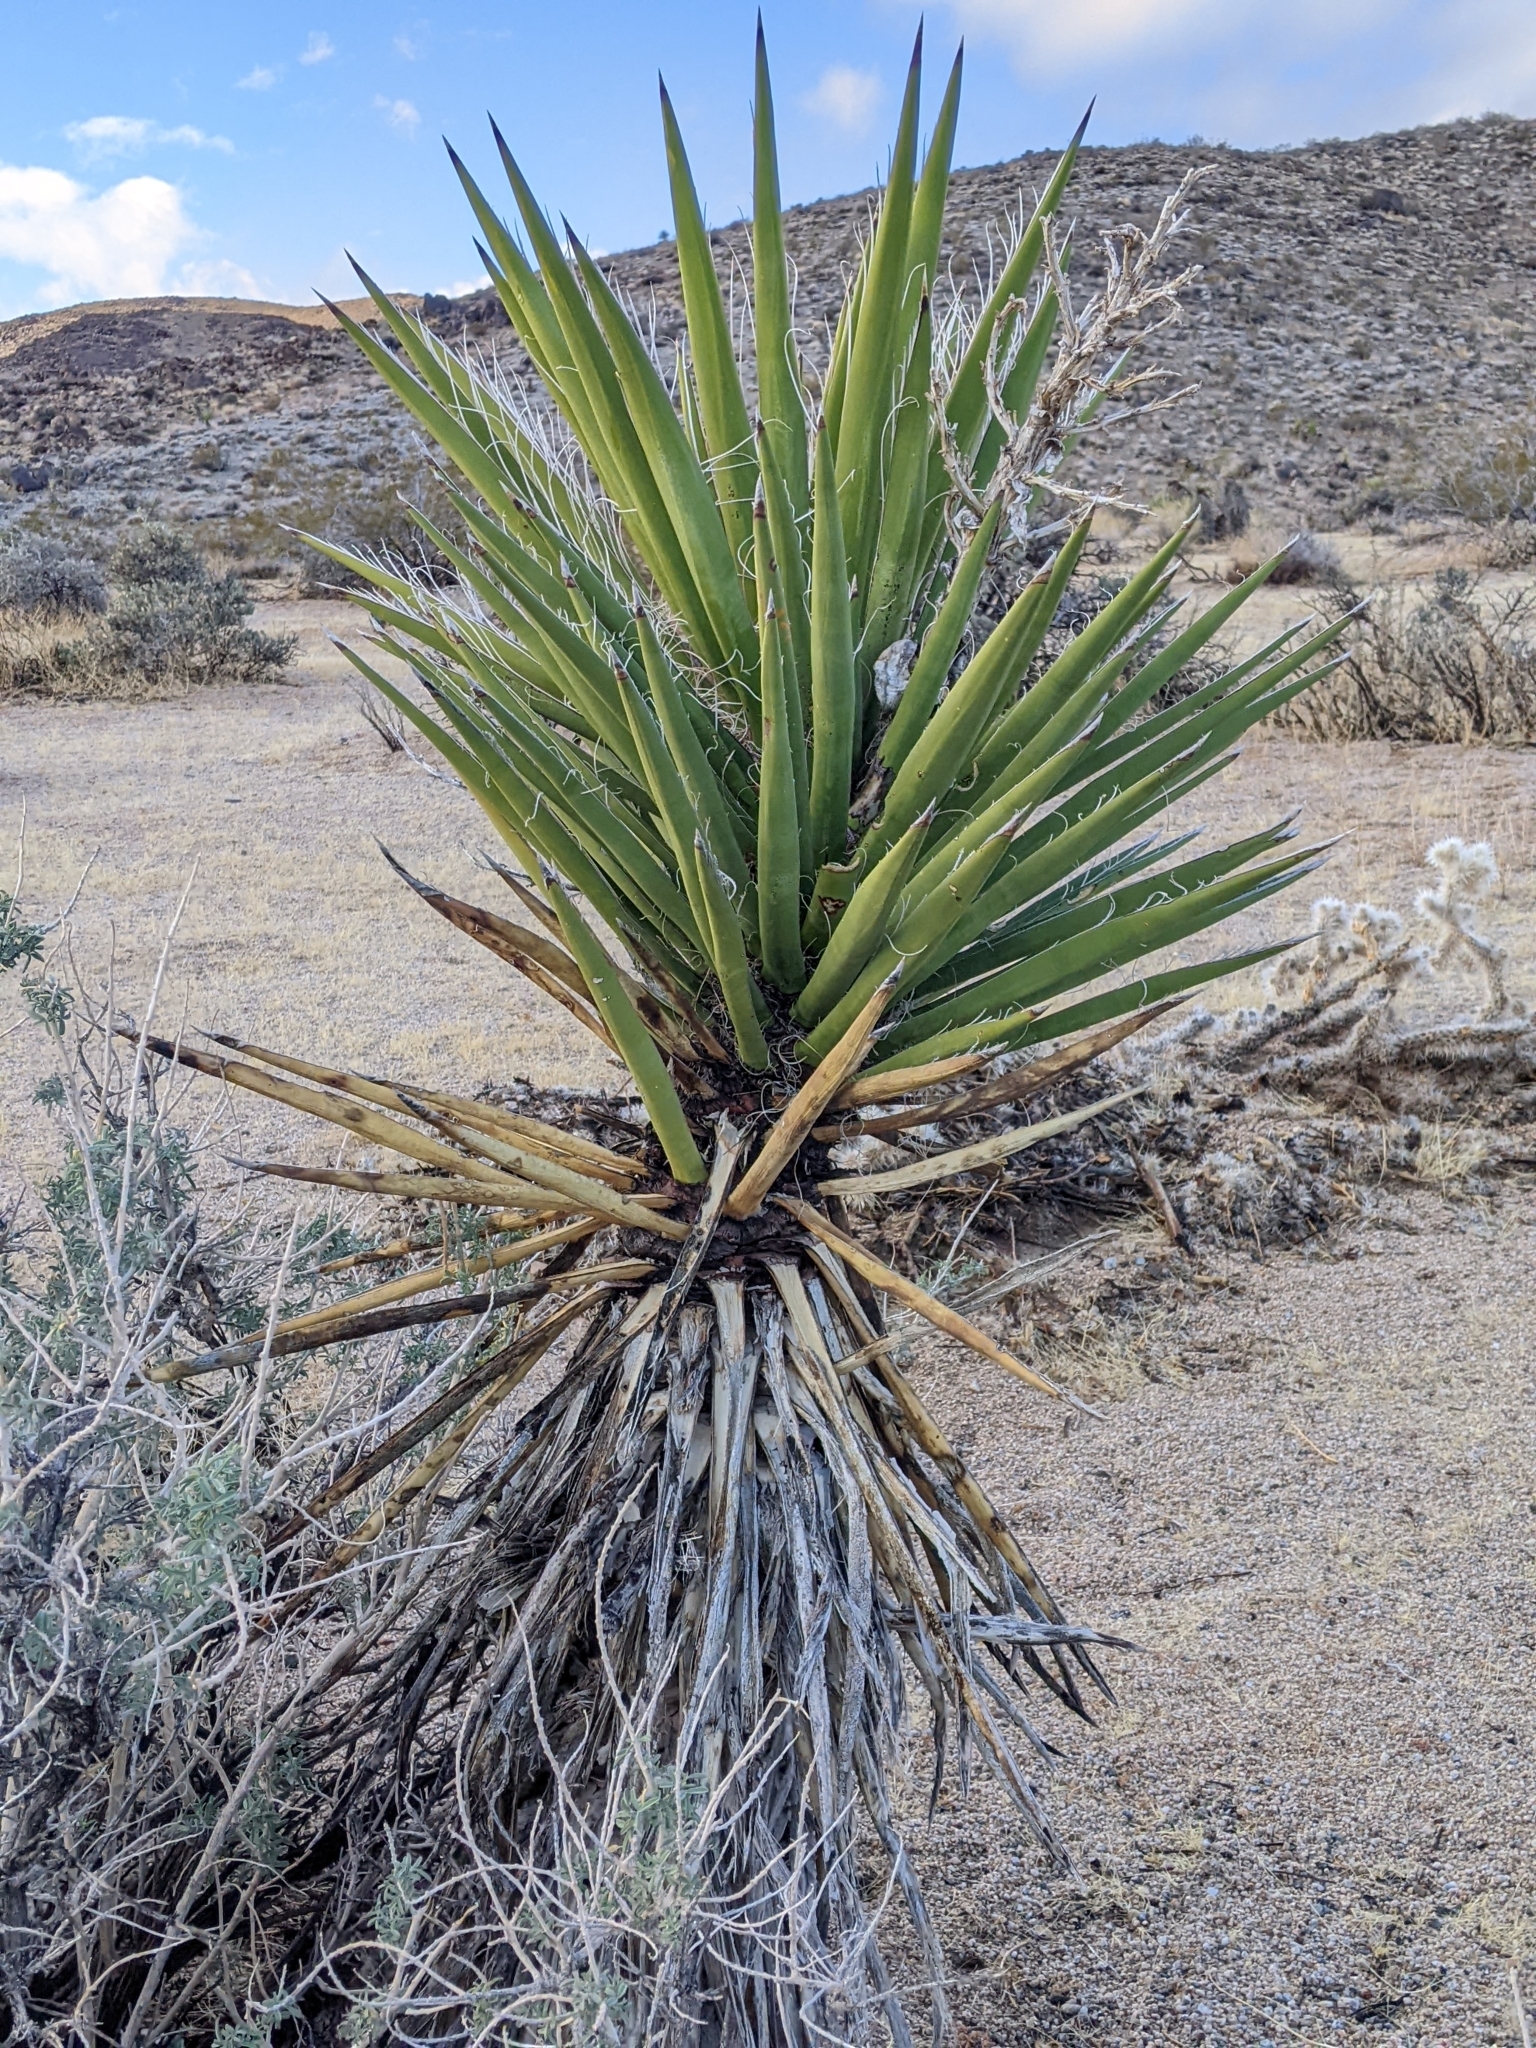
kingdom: Plantae
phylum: Tracheophyta
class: Liliopsida
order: Asparagales
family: Asparagaceae
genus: Yucca
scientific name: Yucca schidigera
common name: Mojave yucca
